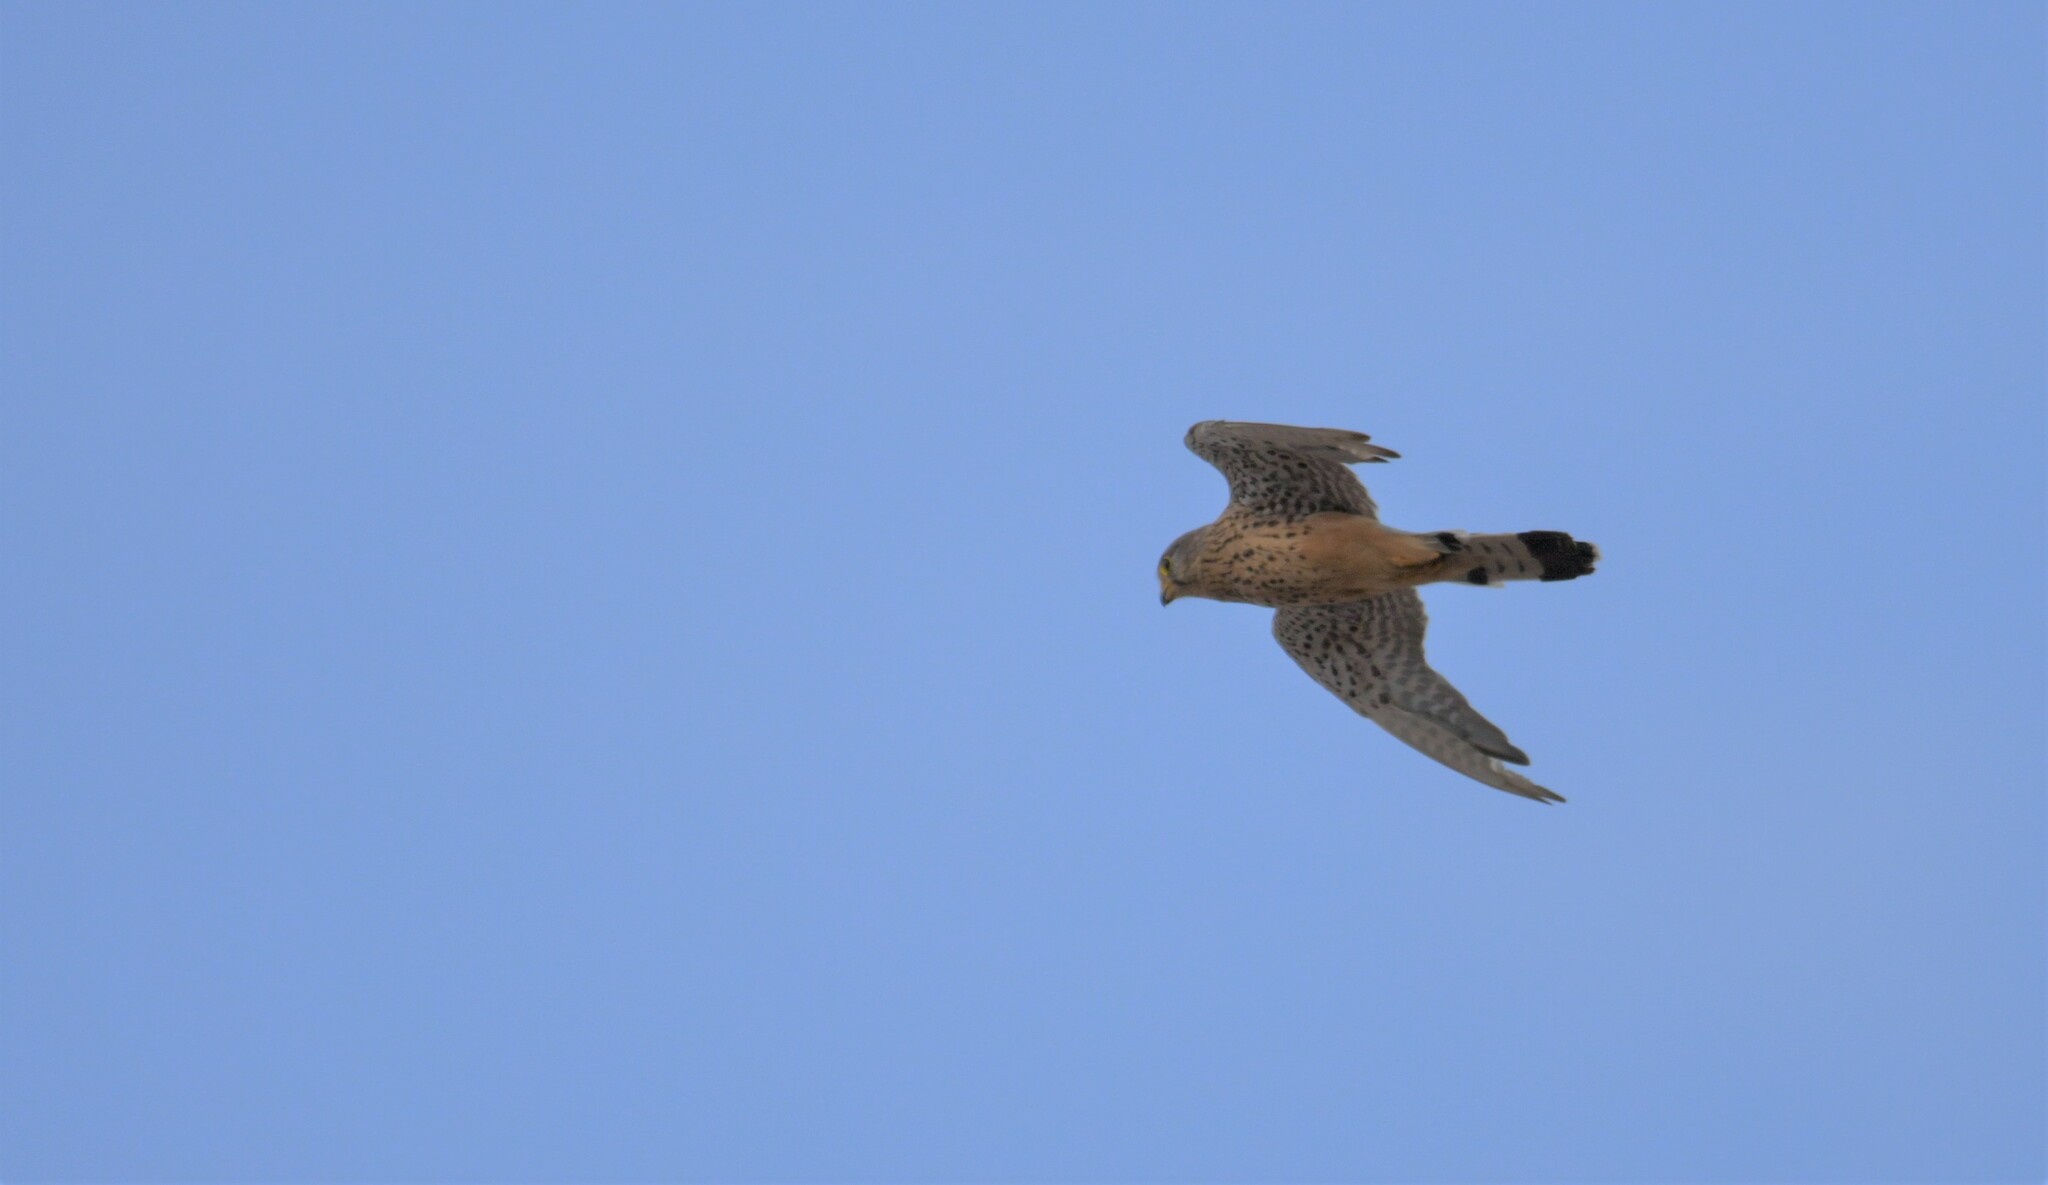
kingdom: Animalia
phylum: Chordata
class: Aves
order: Falconiformes
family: Falconidae
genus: Falco
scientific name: Falco tinnunculus
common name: Common kestrel
